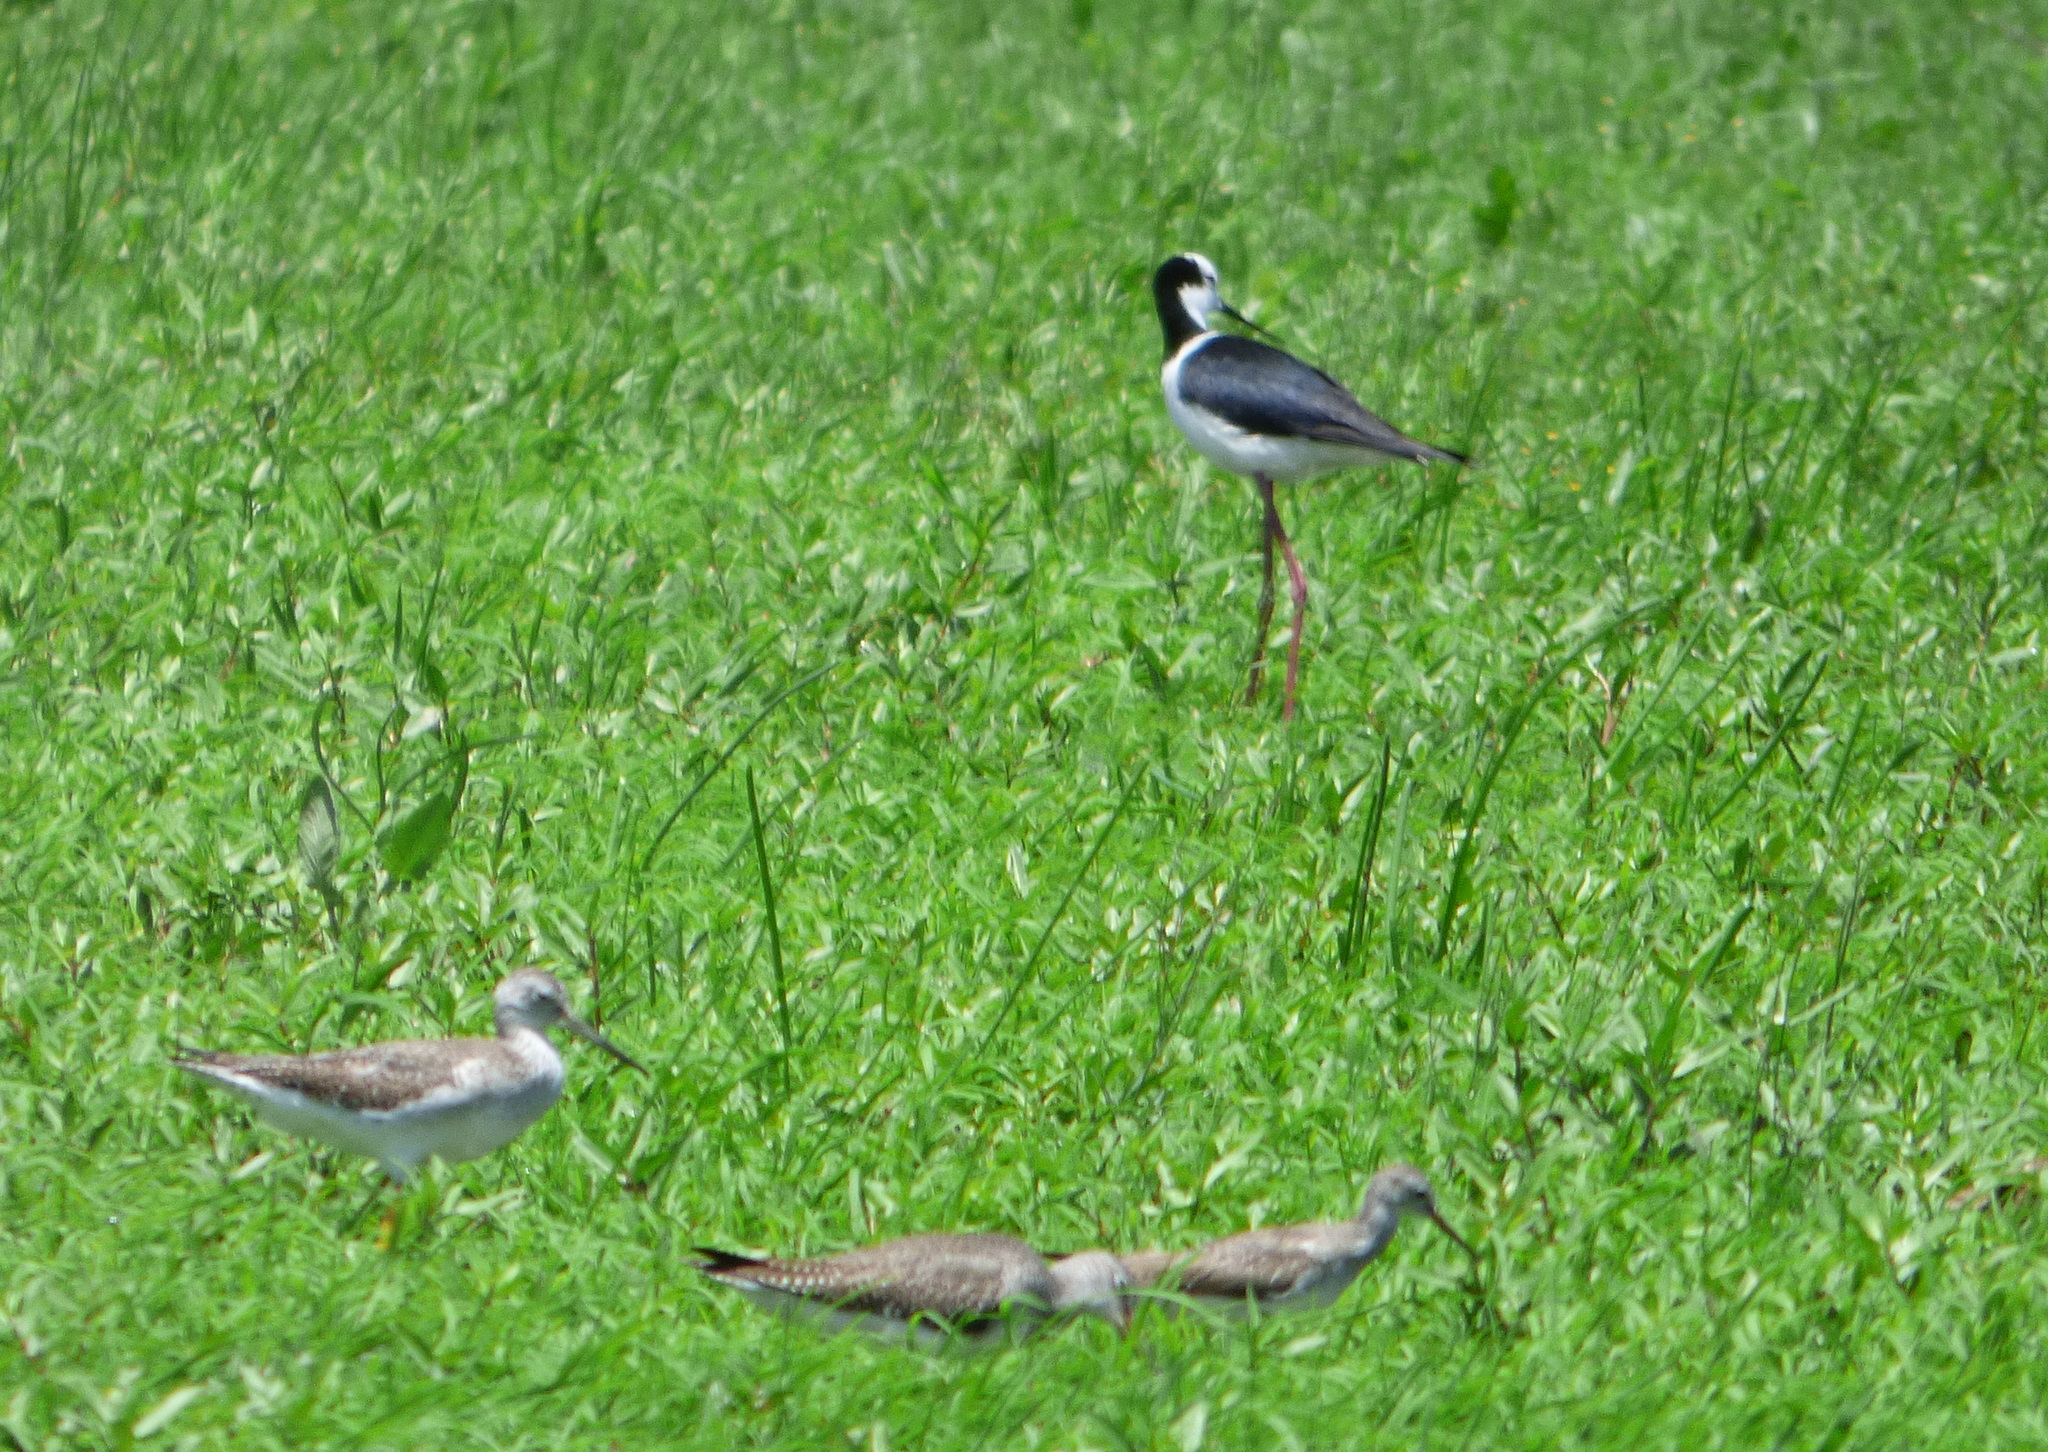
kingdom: Animalia
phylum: Chordata
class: Aves
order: Charadriiformes
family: Recurvirostridae
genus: Himantopus
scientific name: Himantopus mexicanus
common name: Black-necked stilt
